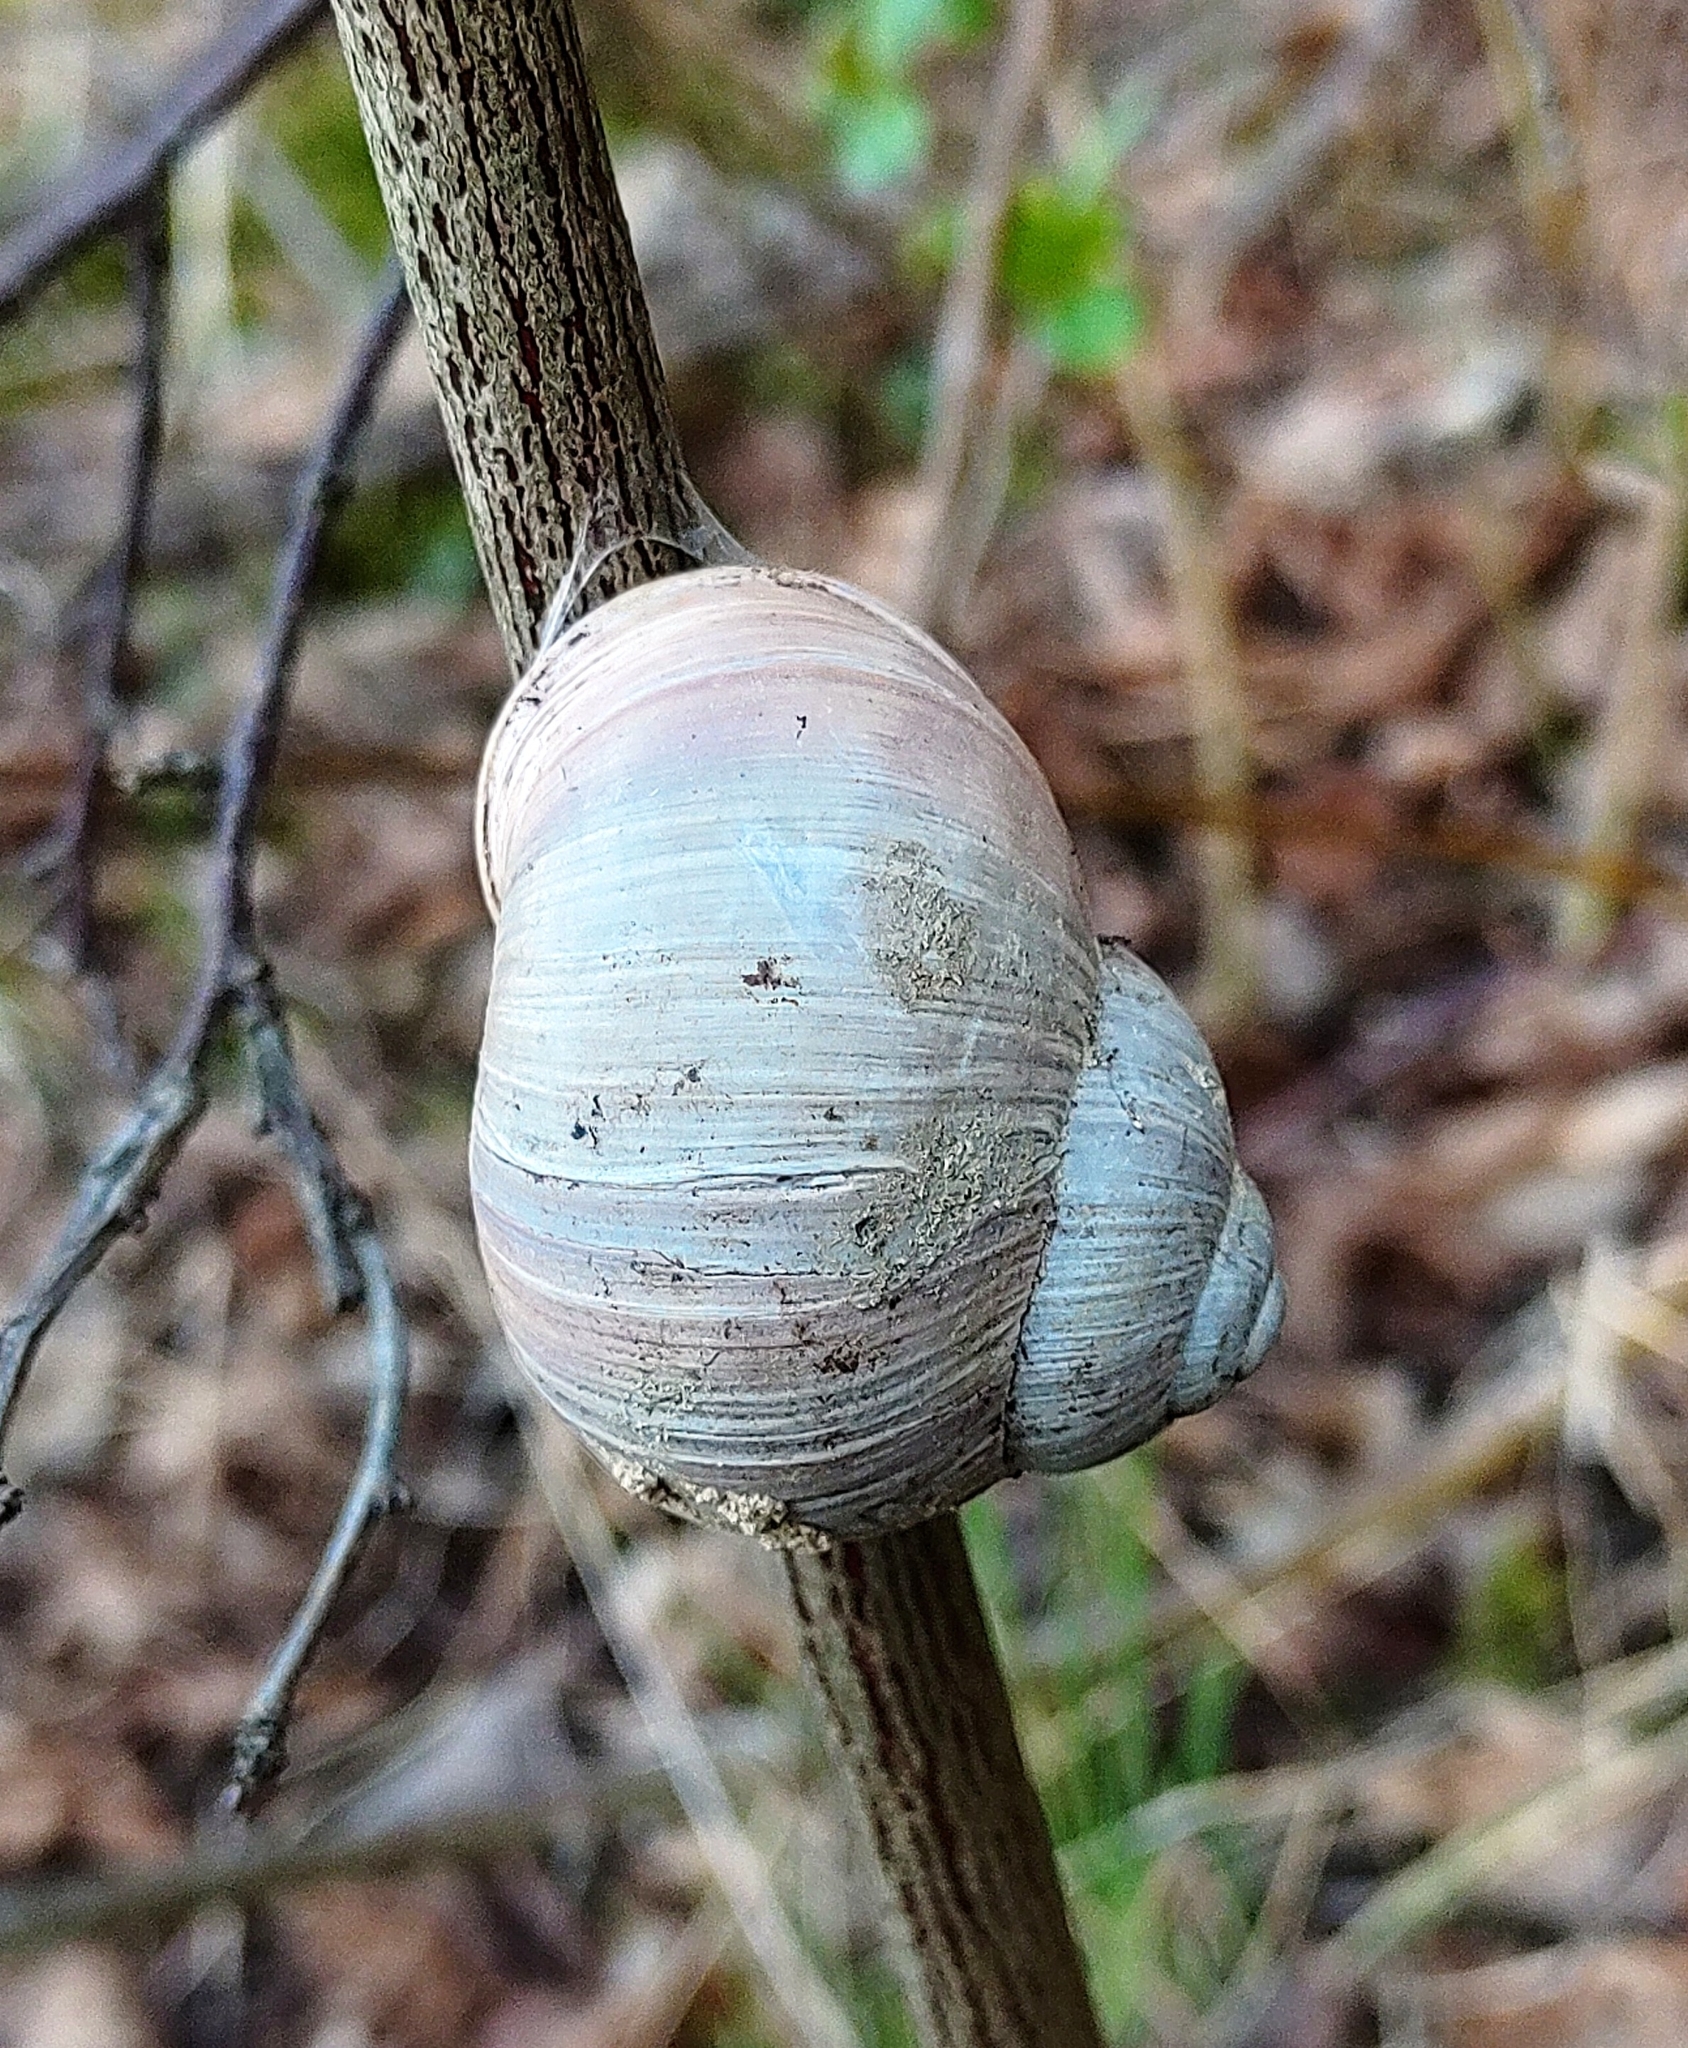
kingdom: Animalia
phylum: Mollusca
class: Gastropoda
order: Stylommatophora
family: Helicidae
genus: Helix
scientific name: Helix pomatia
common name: Roman snail
